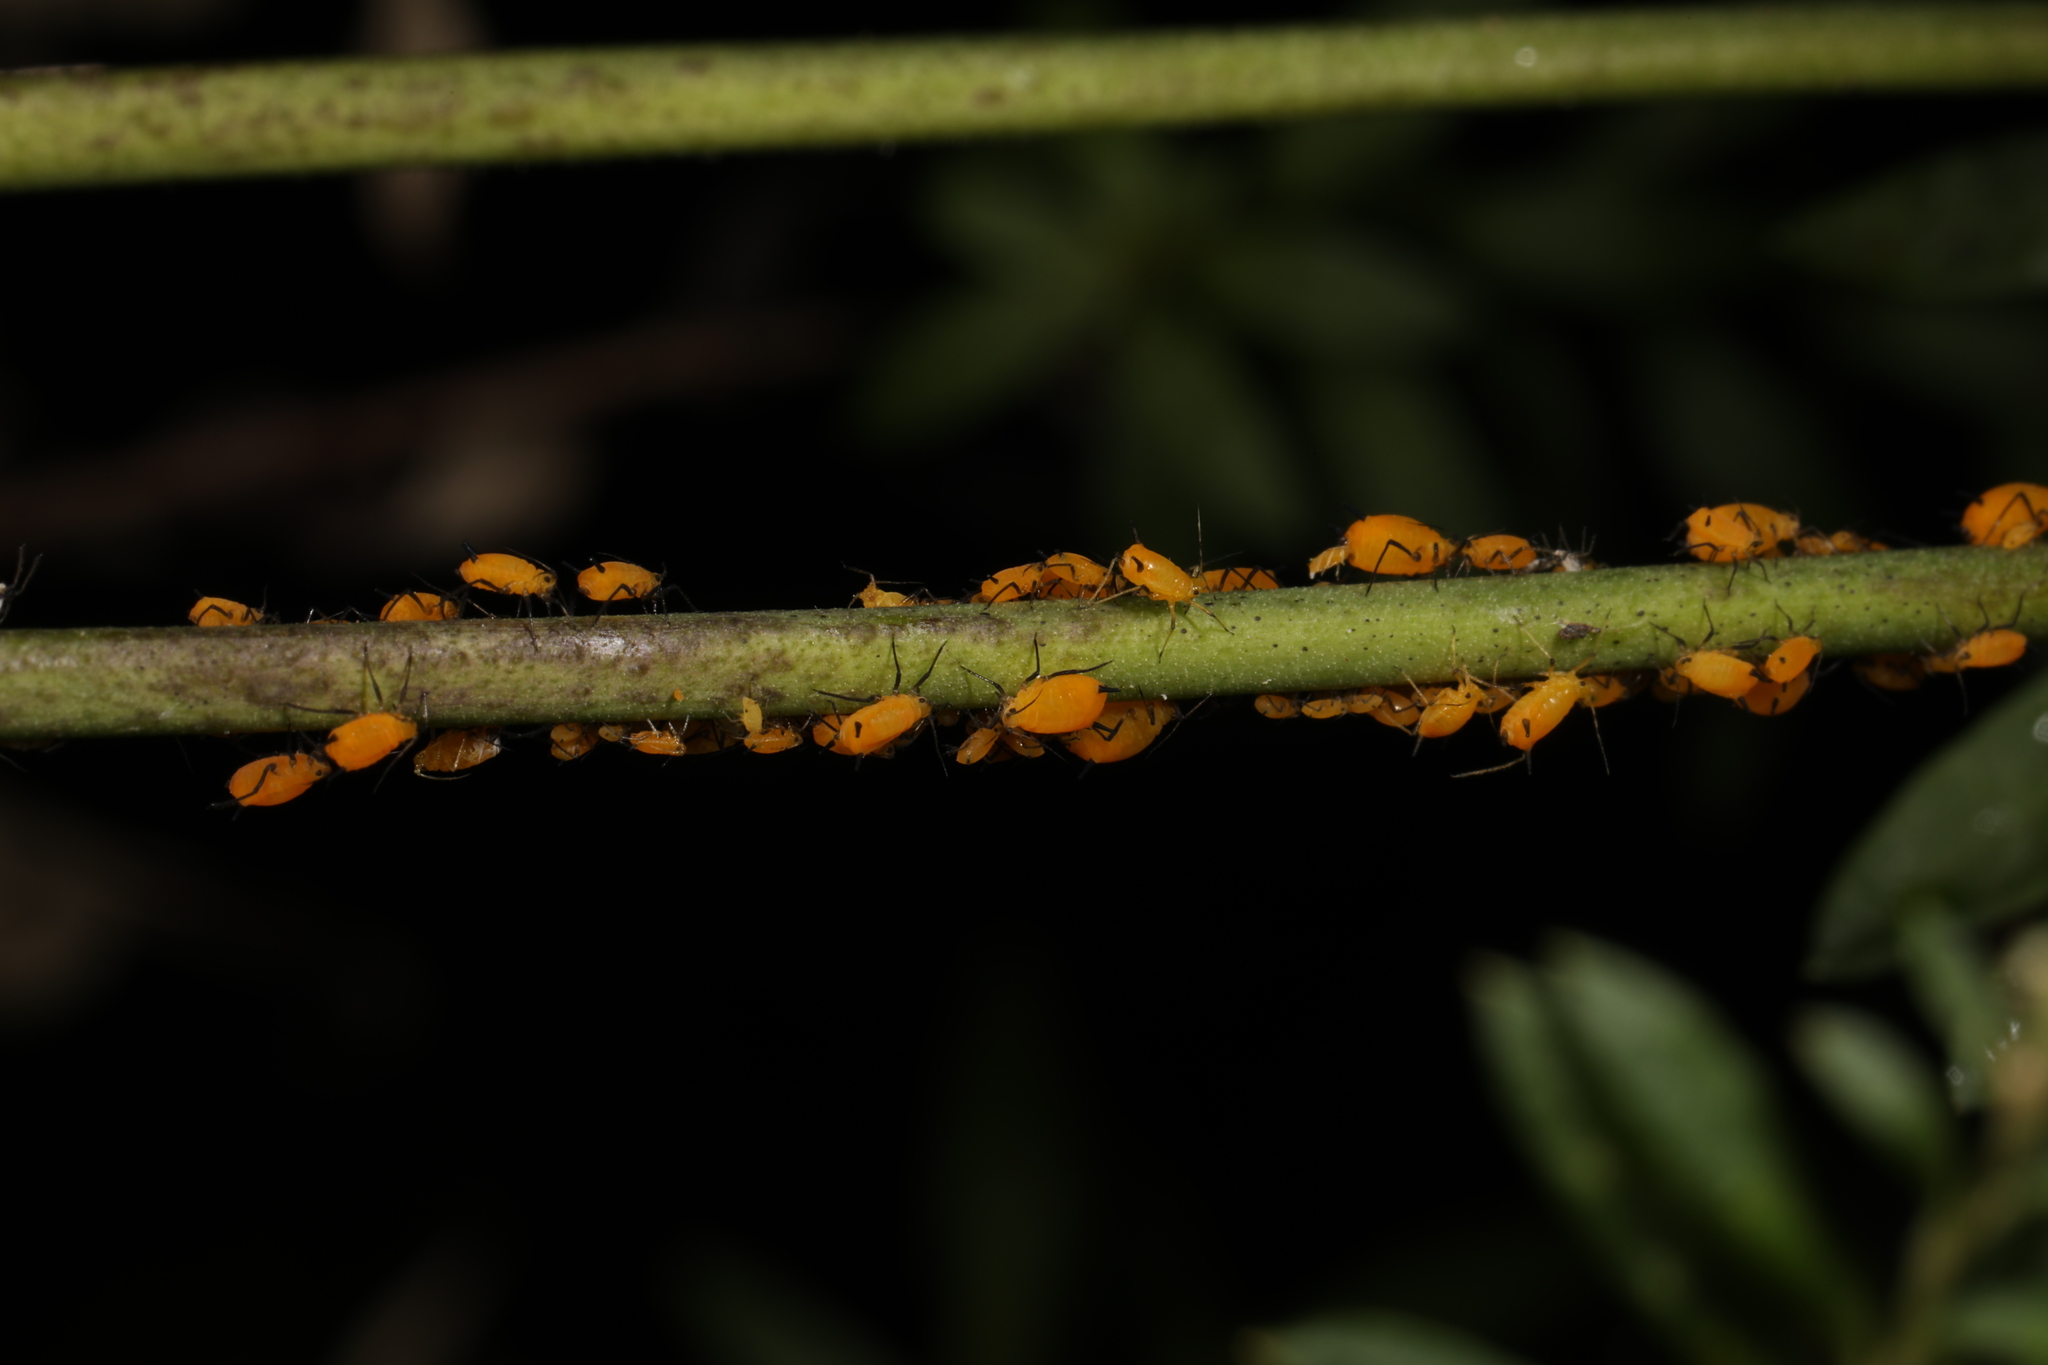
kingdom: Animalia
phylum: Arthropoda
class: Insecta
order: Hemiptera
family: Aphididae
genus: Aphis
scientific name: Aphis nerii
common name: Oleander aphid
